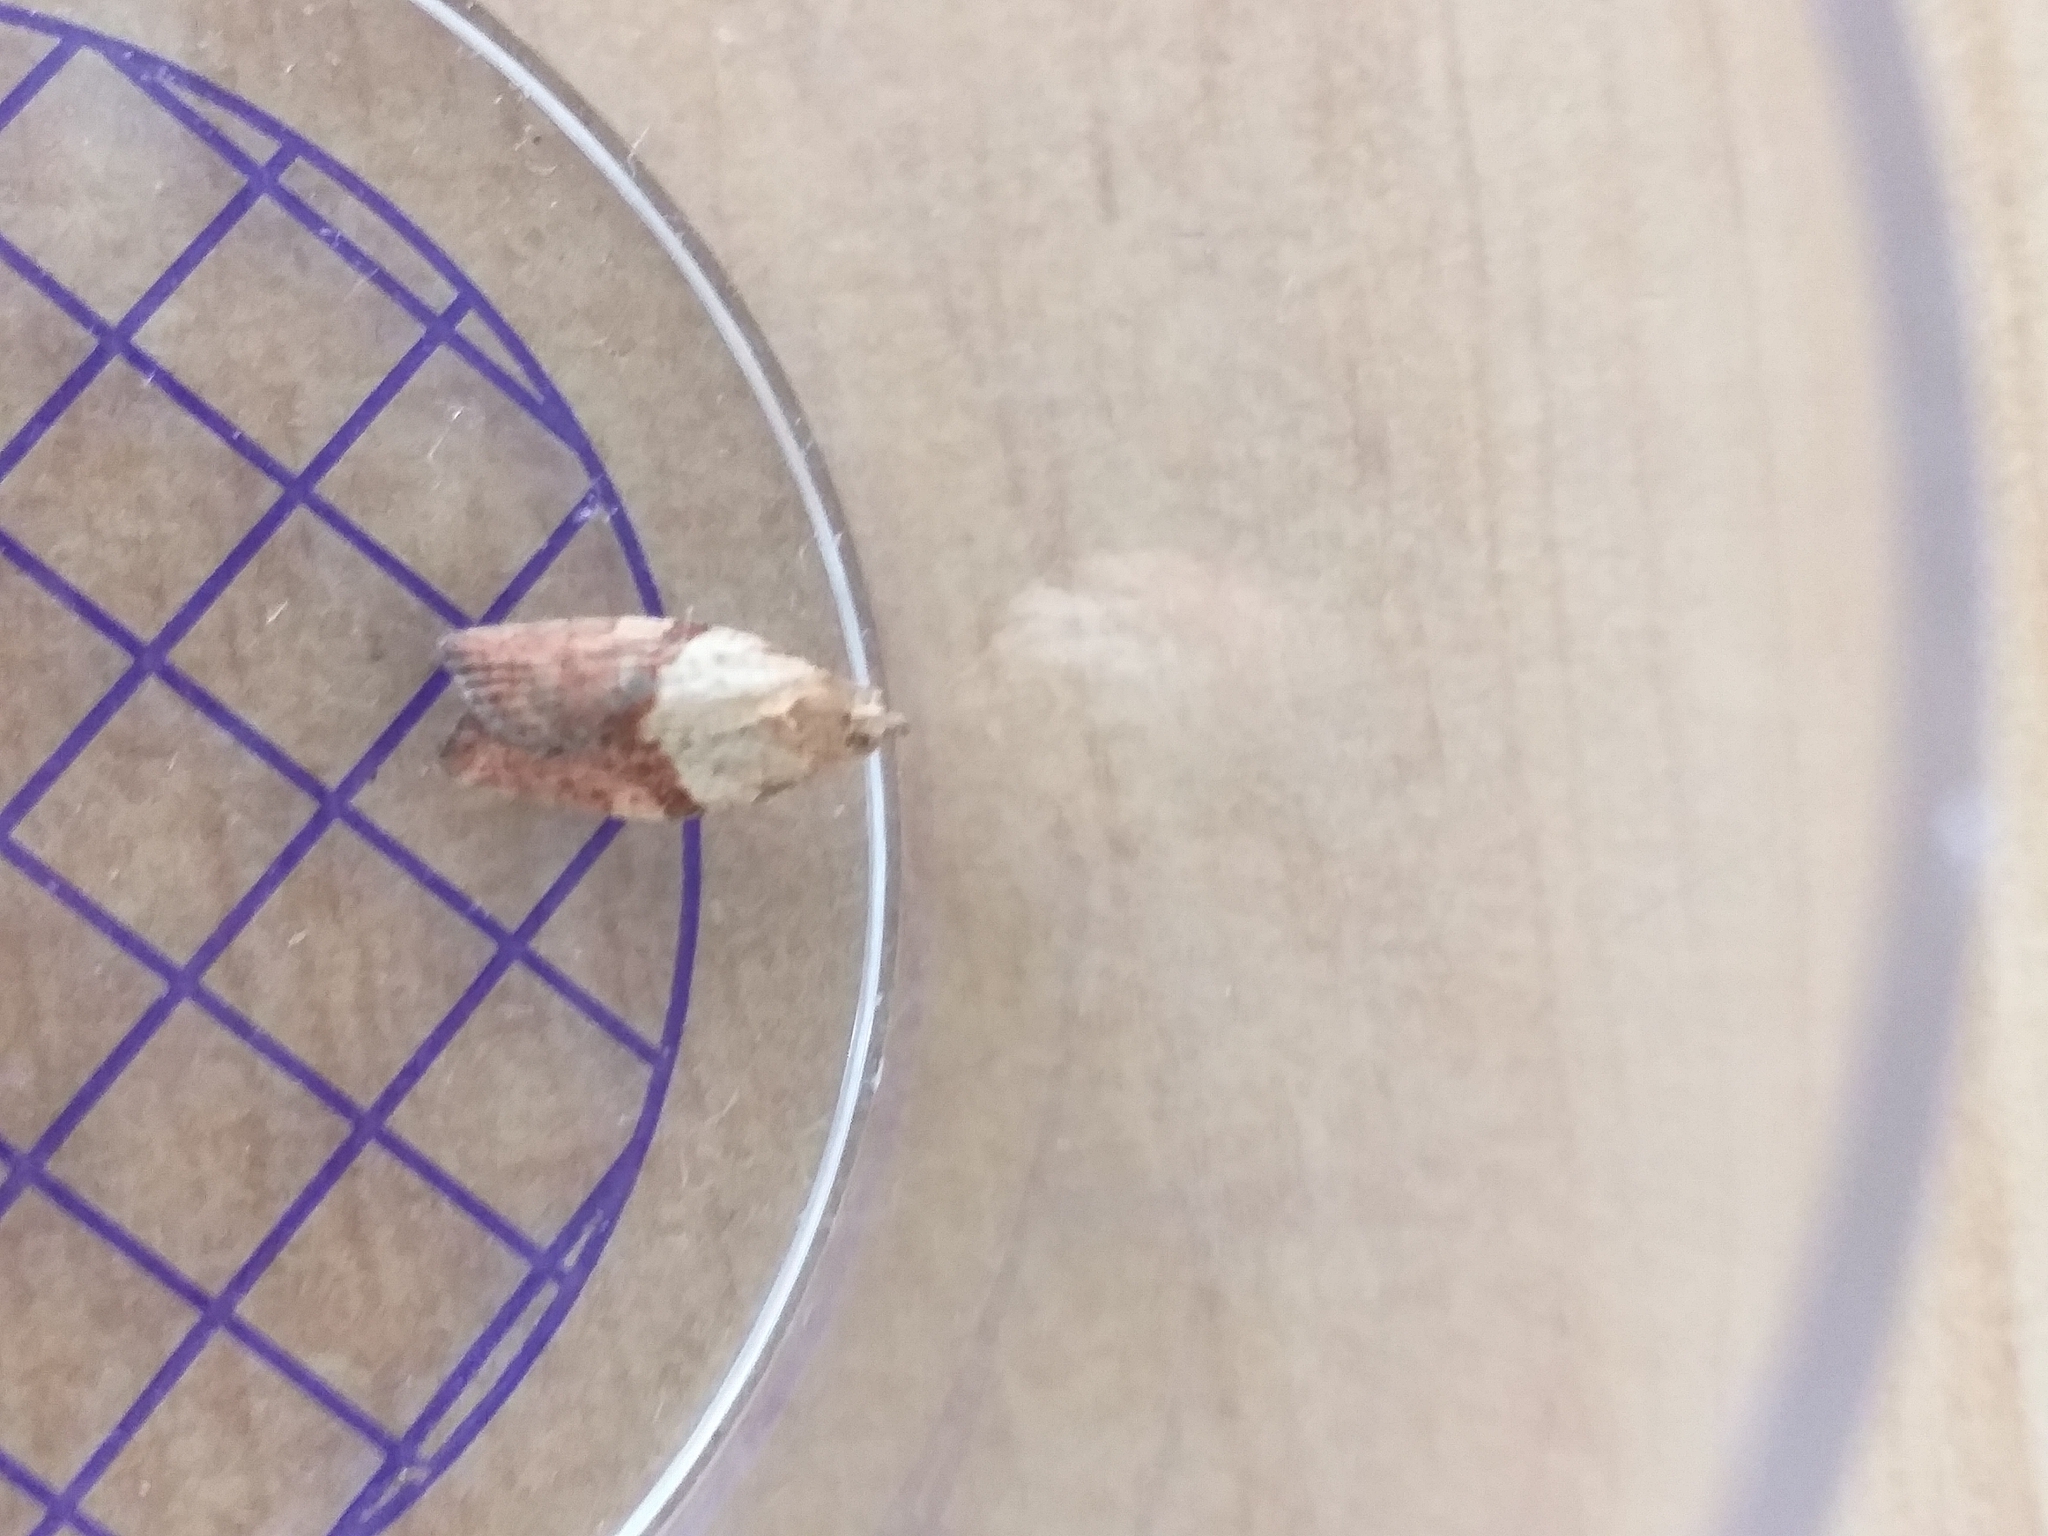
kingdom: Animalia
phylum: Arthropoda
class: Insecta
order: Lepidoptera
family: Tortricidae
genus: Epiphyas
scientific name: Epiphyas postvittana
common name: Light brown apple moth
